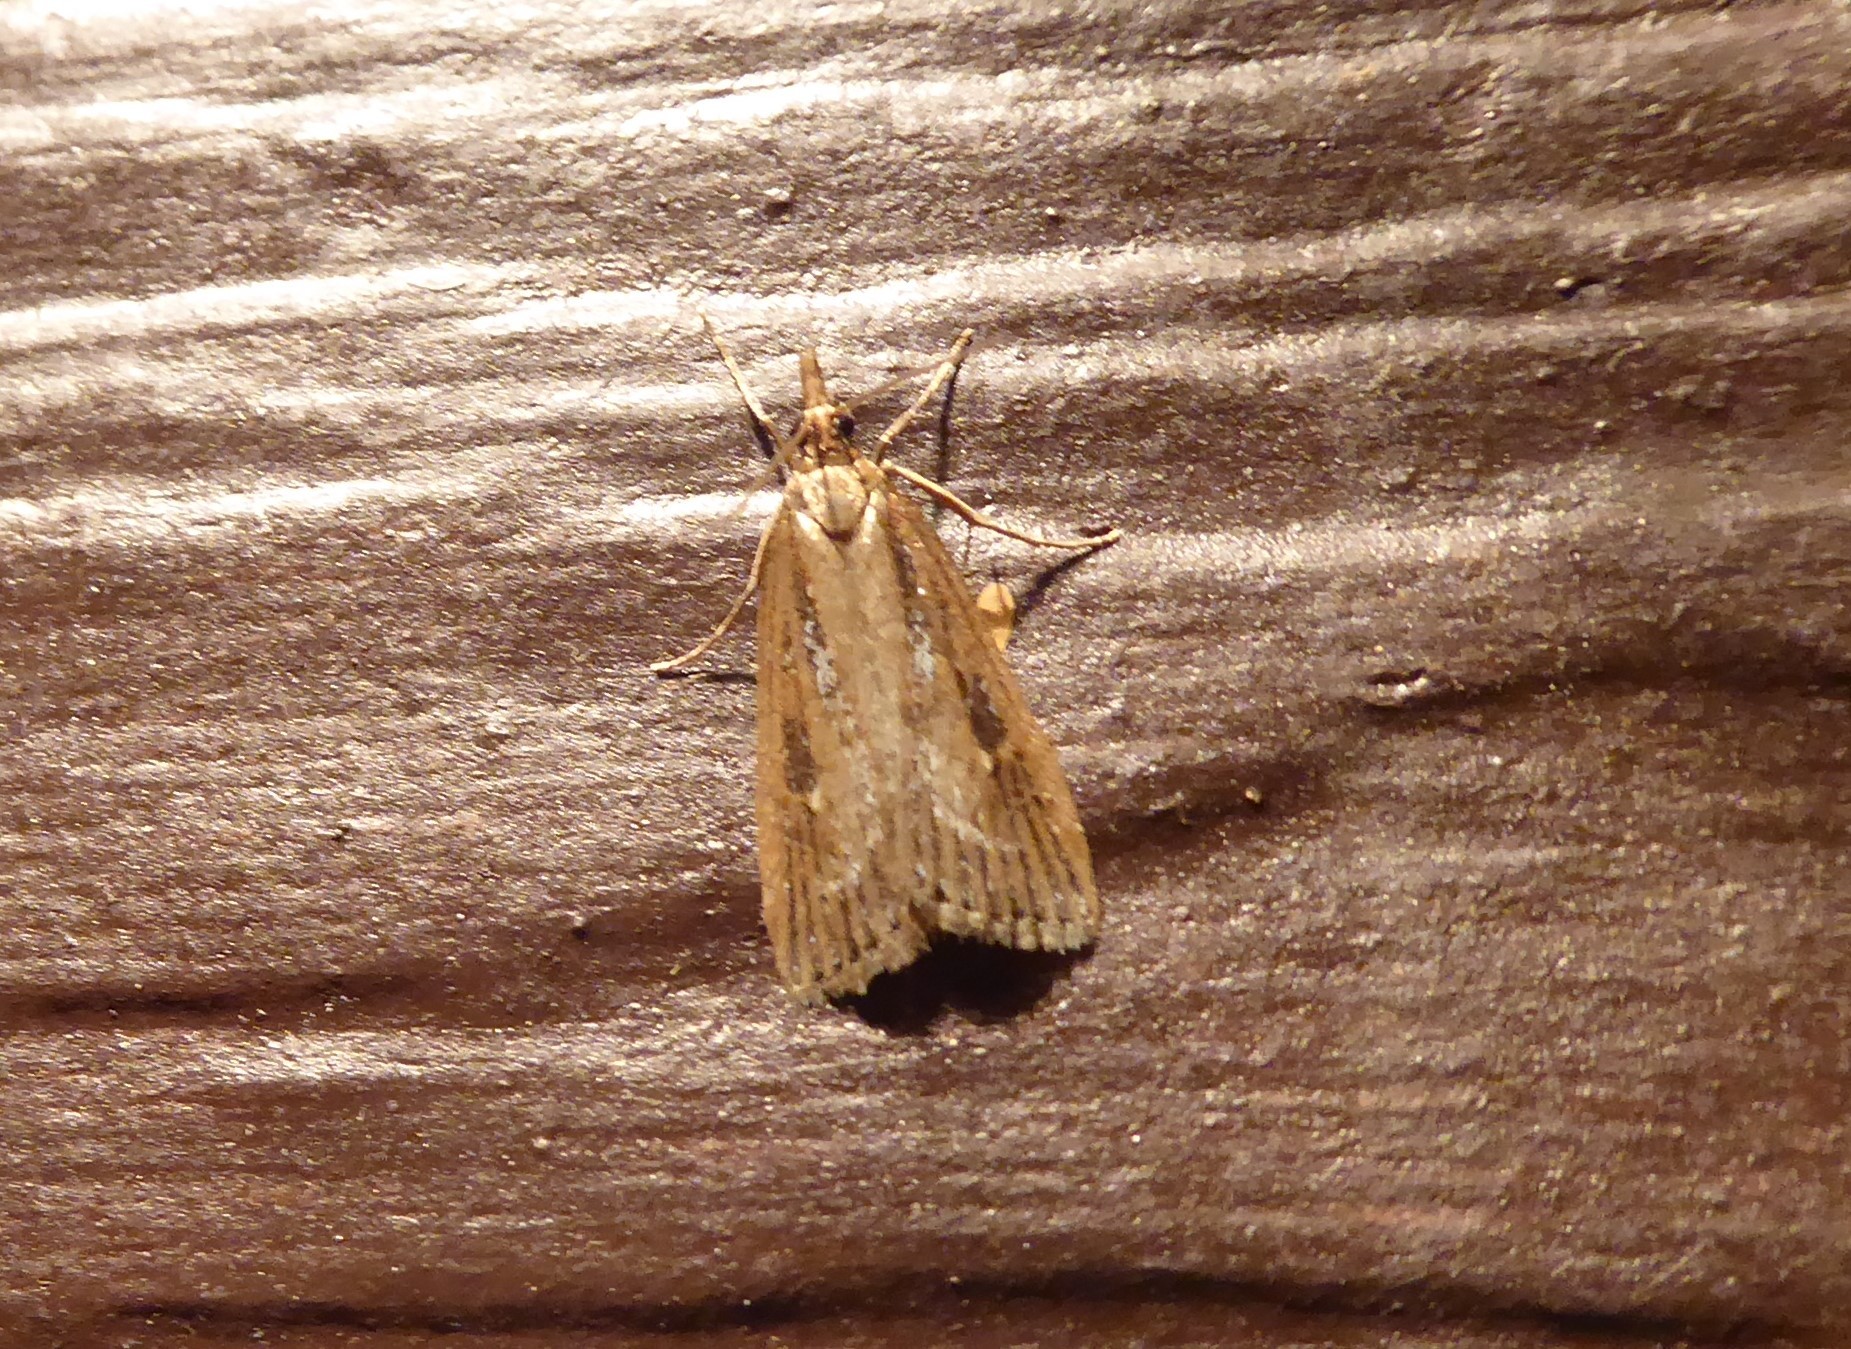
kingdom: Animalia
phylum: Arthropoda
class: Insecta
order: Lepidoptera
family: Crambidae
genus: Eudonia
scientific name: Eudonia octophora
